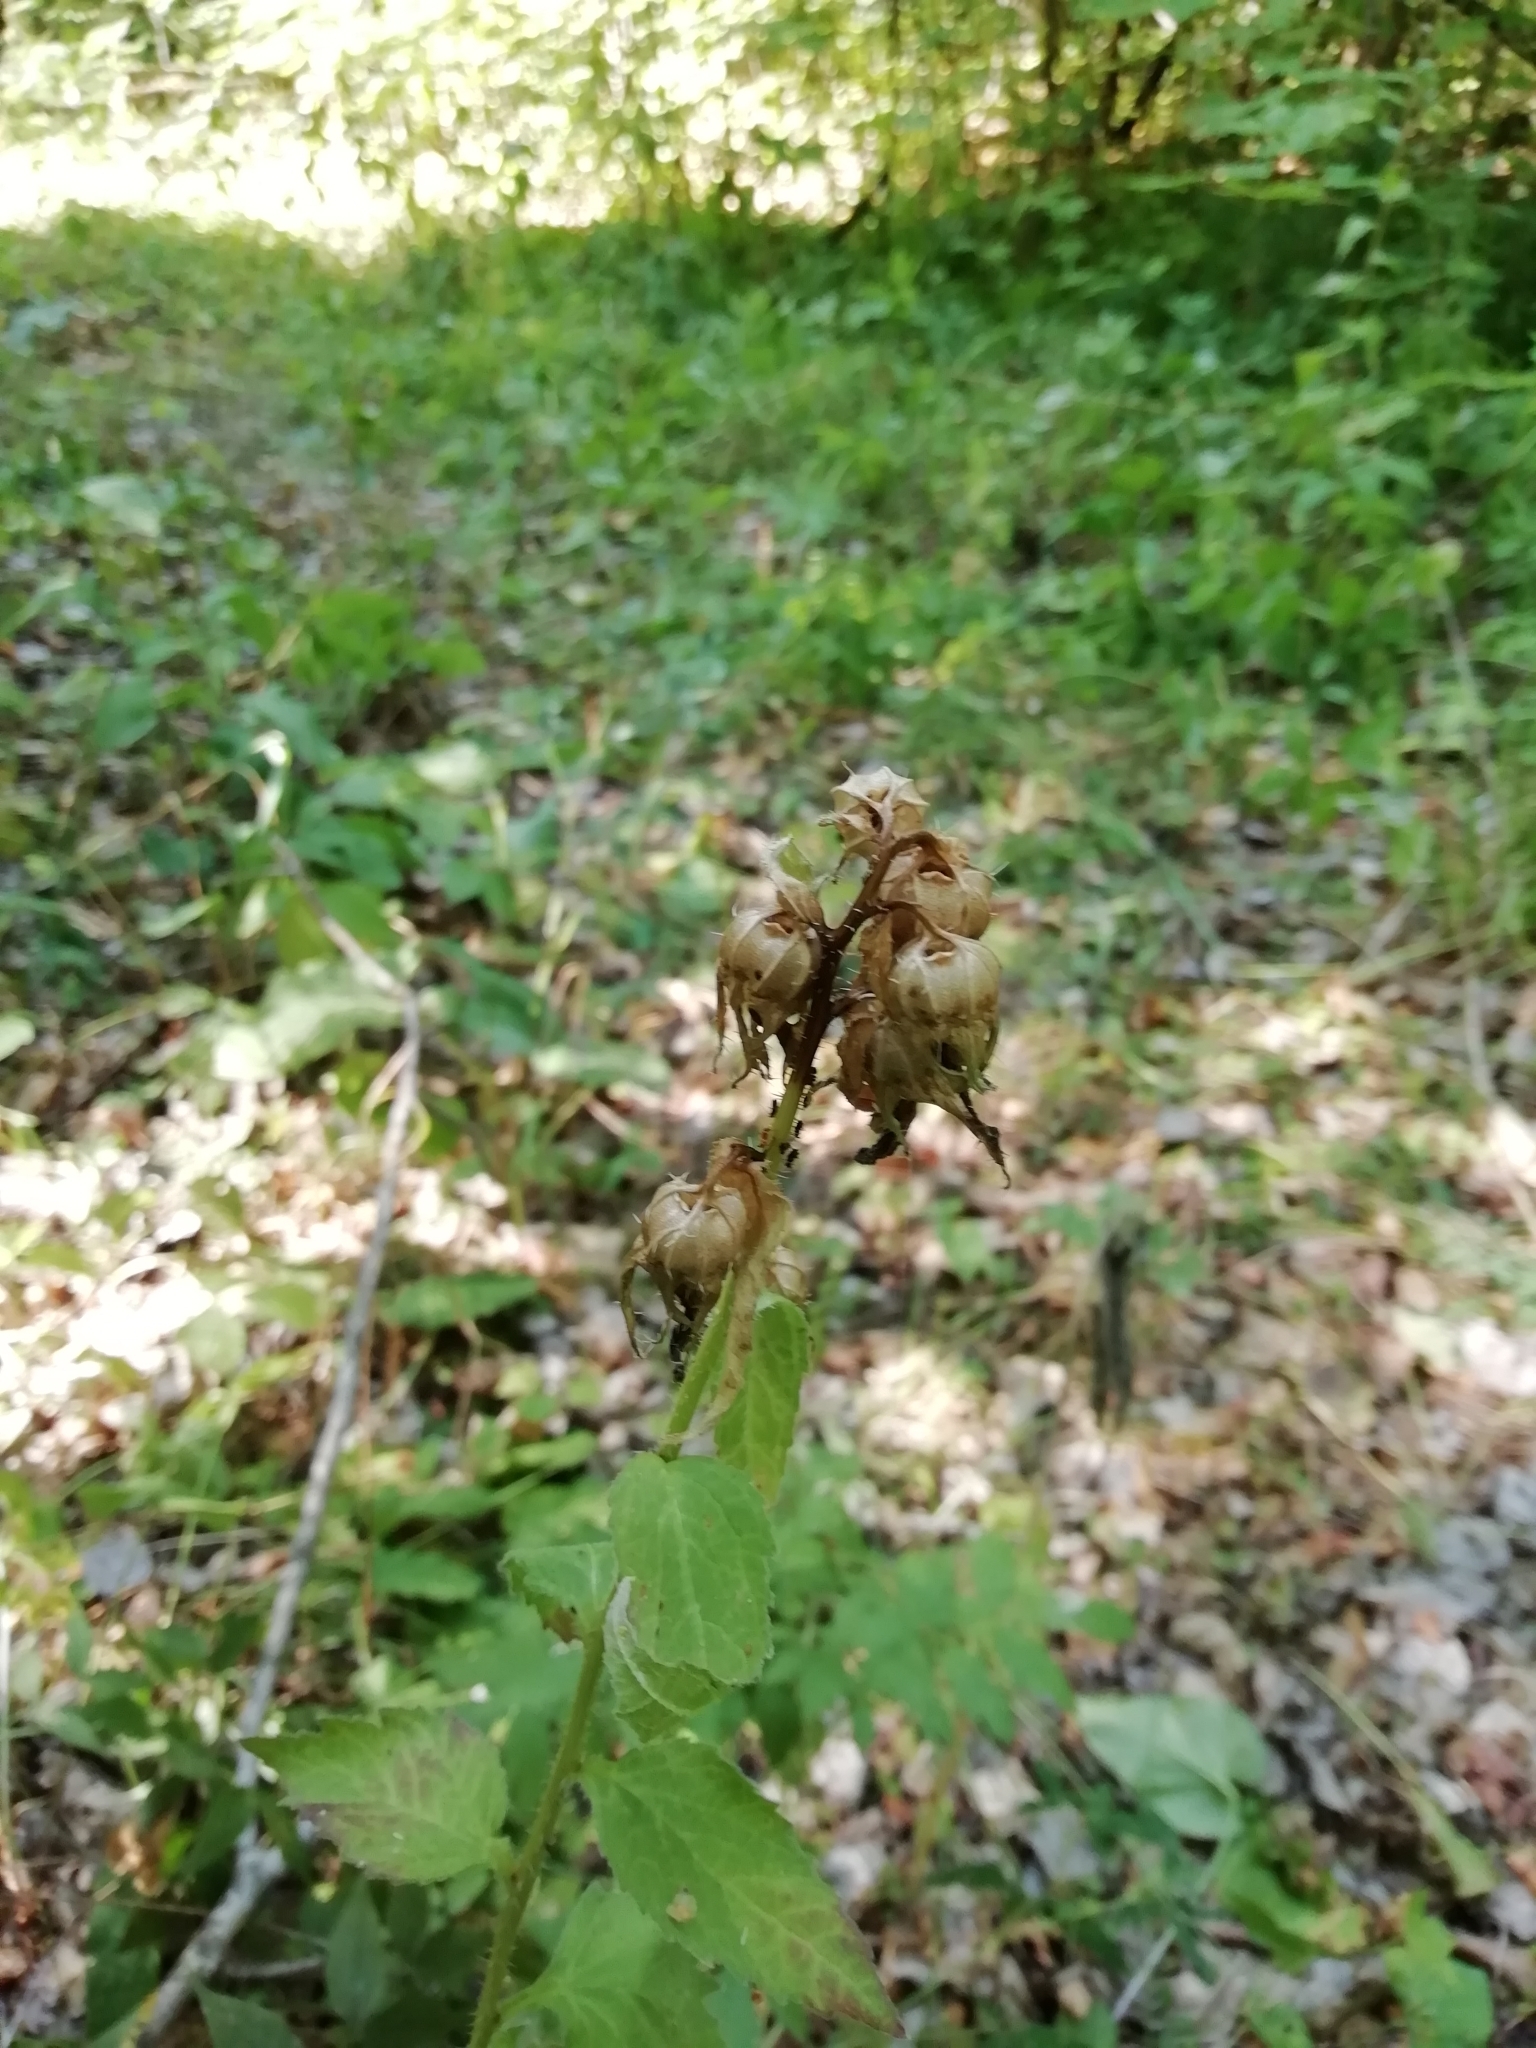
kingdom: Plantae
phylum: Tracheophyta
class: Magnoliopsida
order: Asterales
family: Campanulaceae
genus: Campanula
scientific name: Campanula trachelium
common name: Nettle-leaved bellflower
